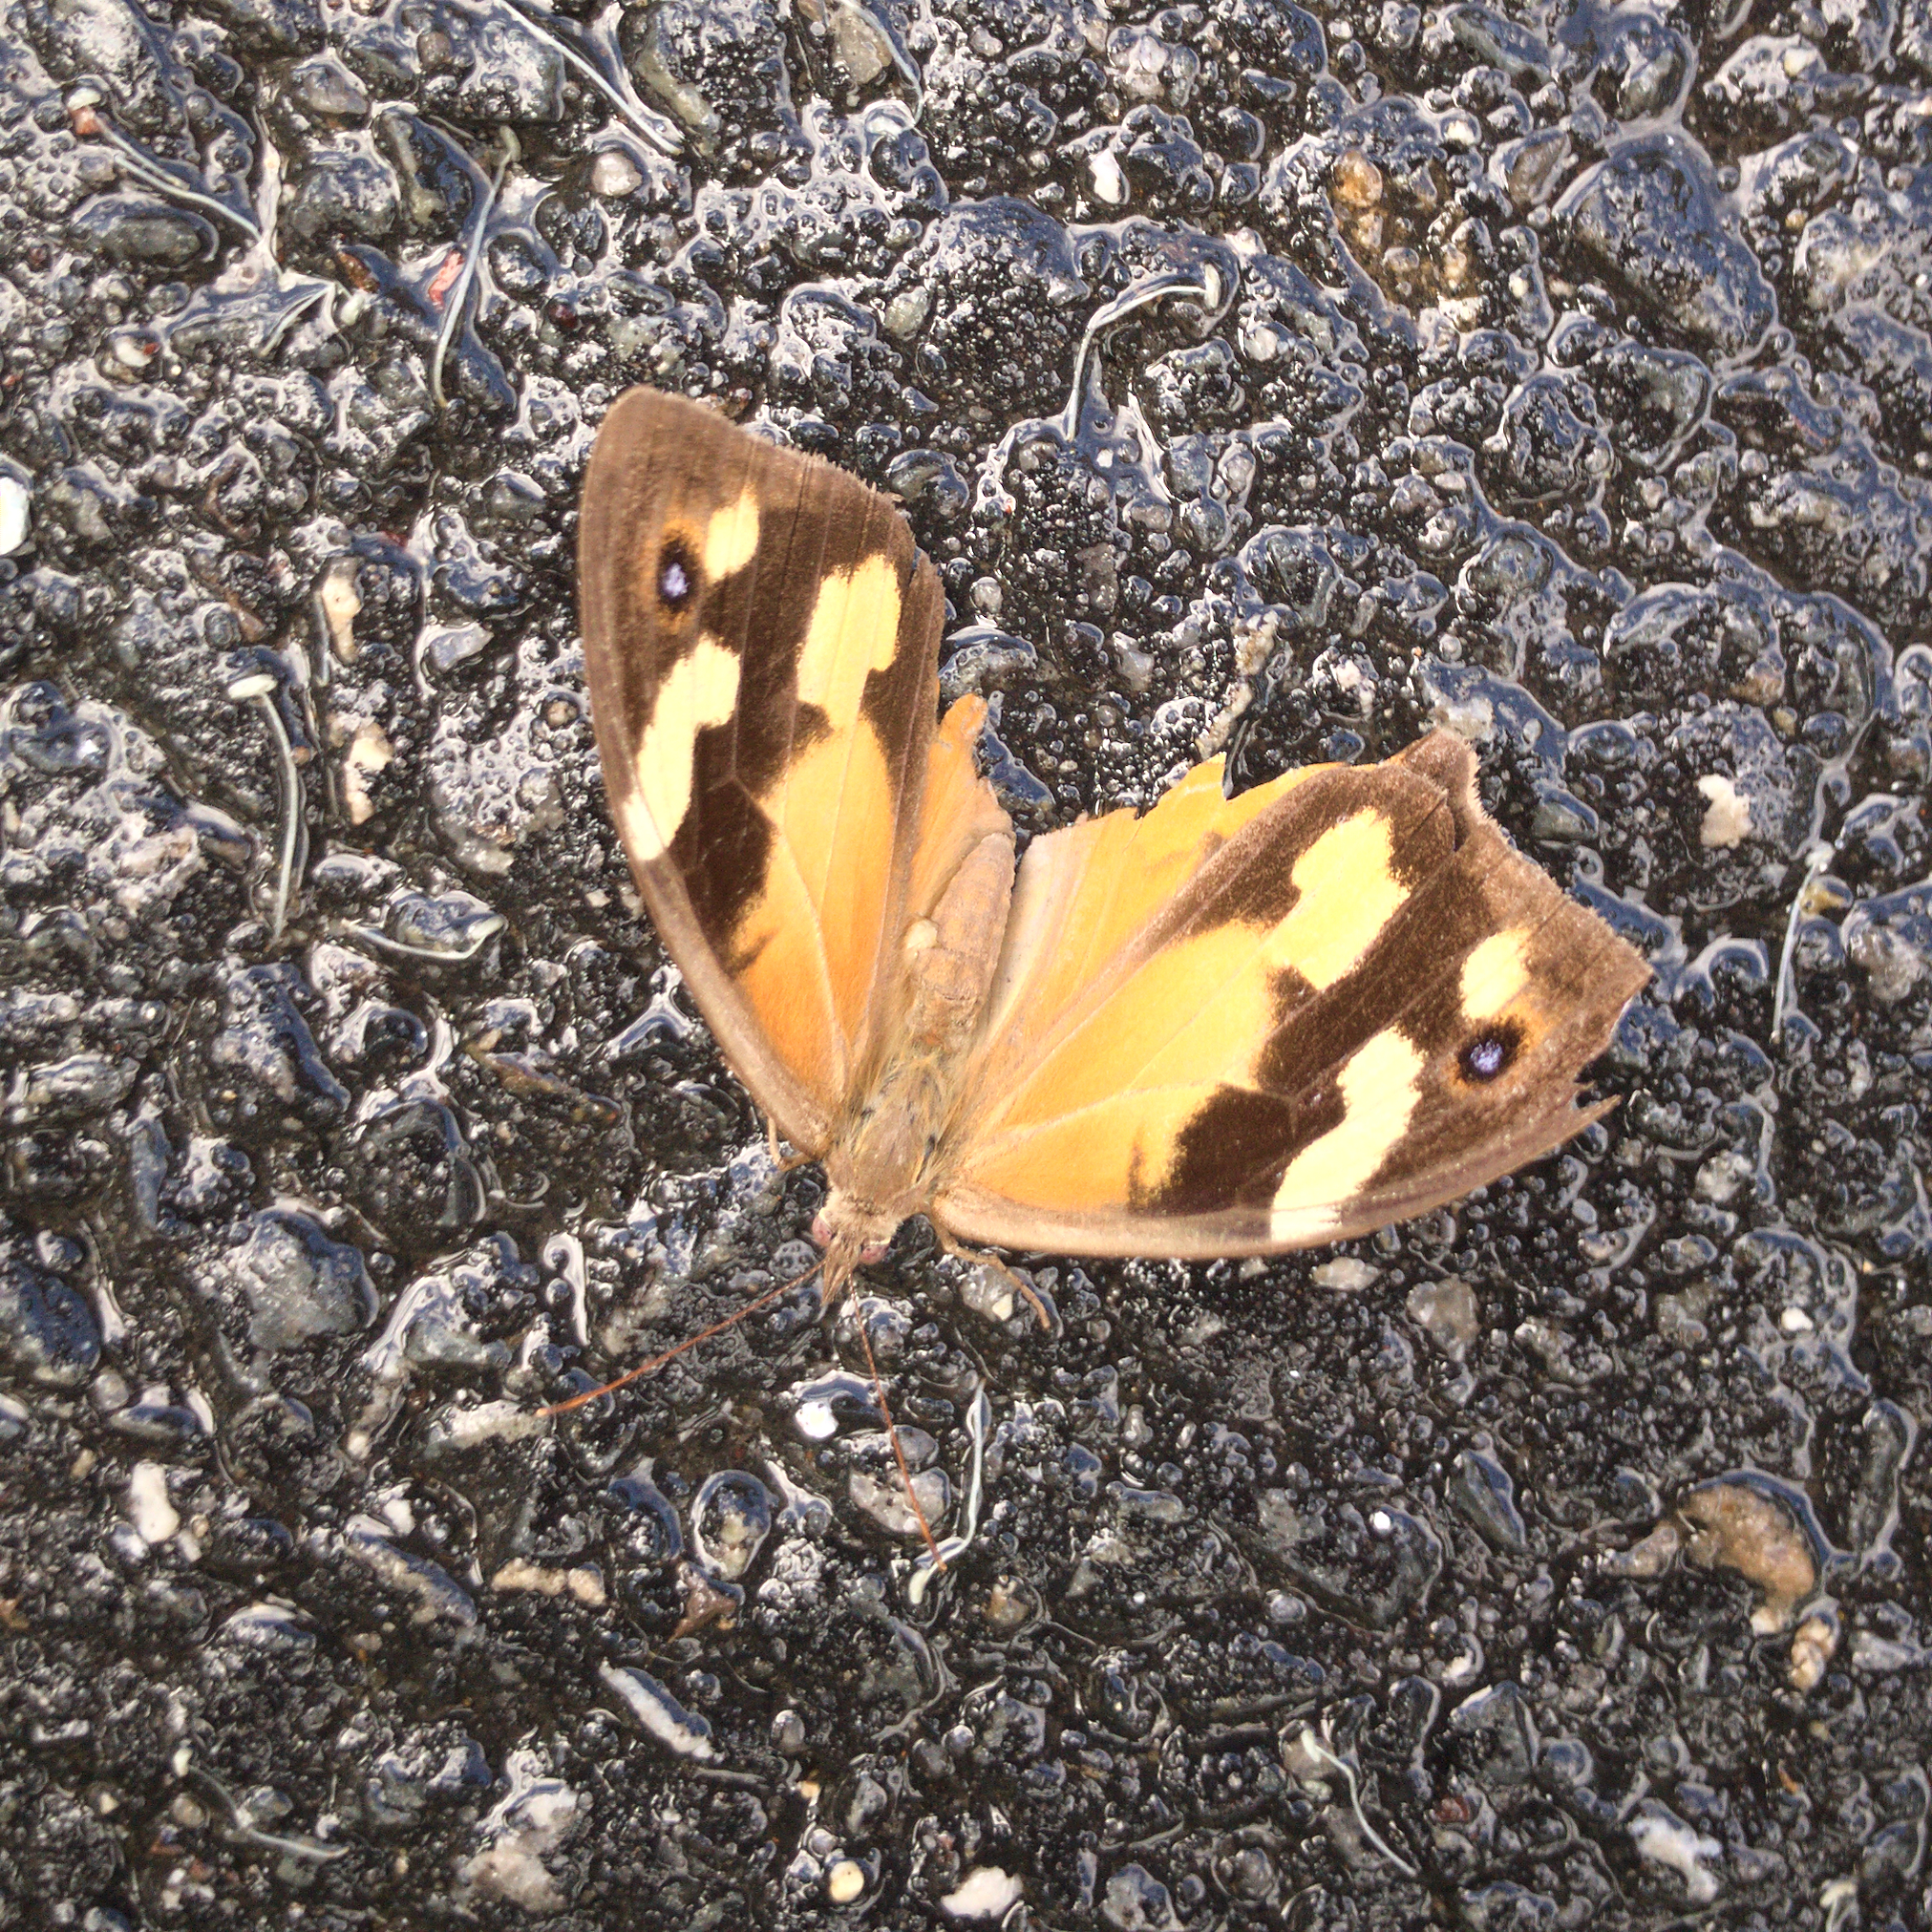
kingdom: Animalia
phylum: Arthropoda
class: Insecta
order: Lepidoptera
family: Nymphalidae
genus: Heteronympha
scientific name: Heteronympha merope
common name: Common brown
